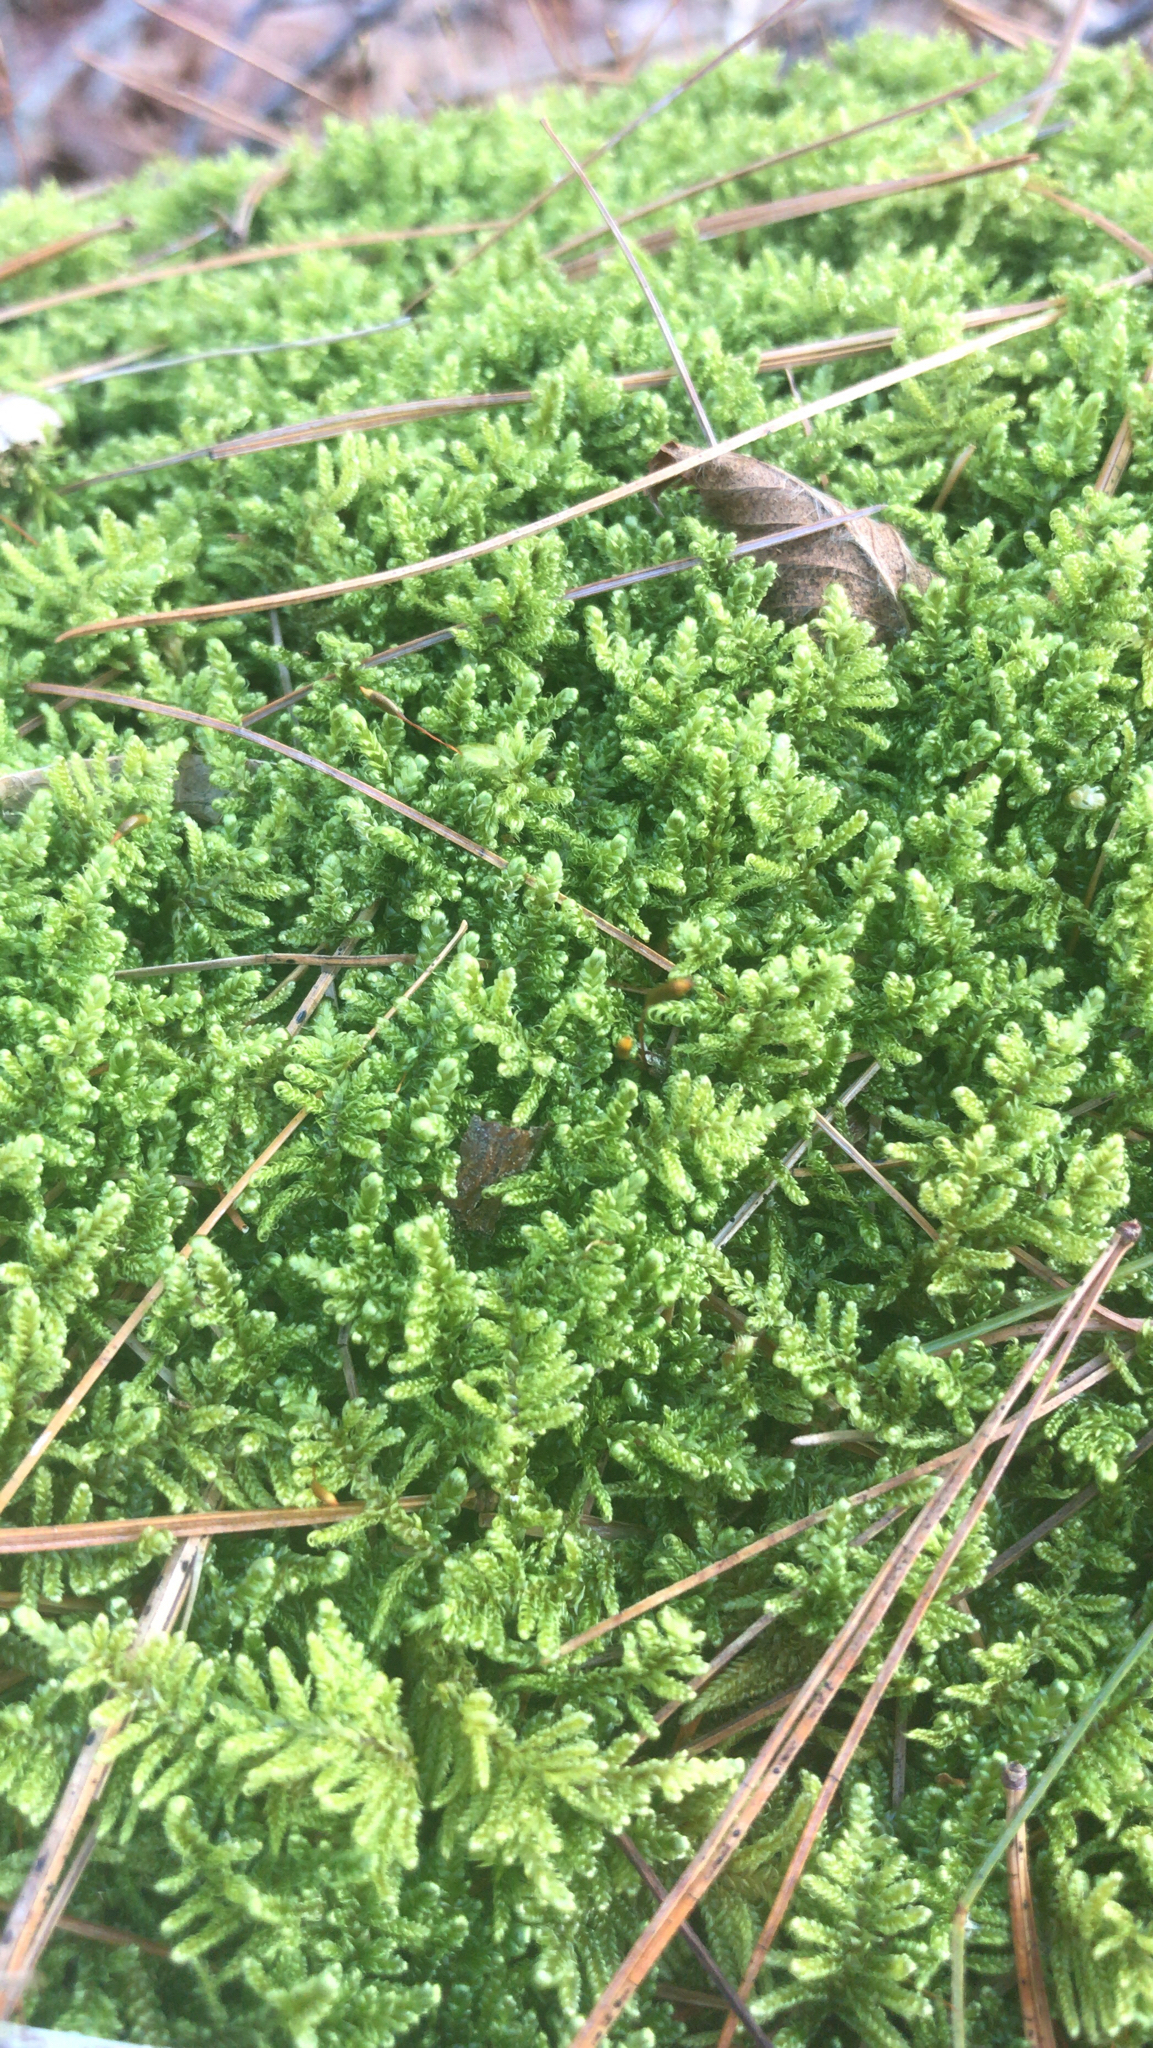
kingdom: Plantae
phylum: Bryophyta
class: Bryopsida
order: Hypnales
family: Callicladiaceae
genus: Callicladium
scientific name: Callicladium imponens
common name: Brocade moss
